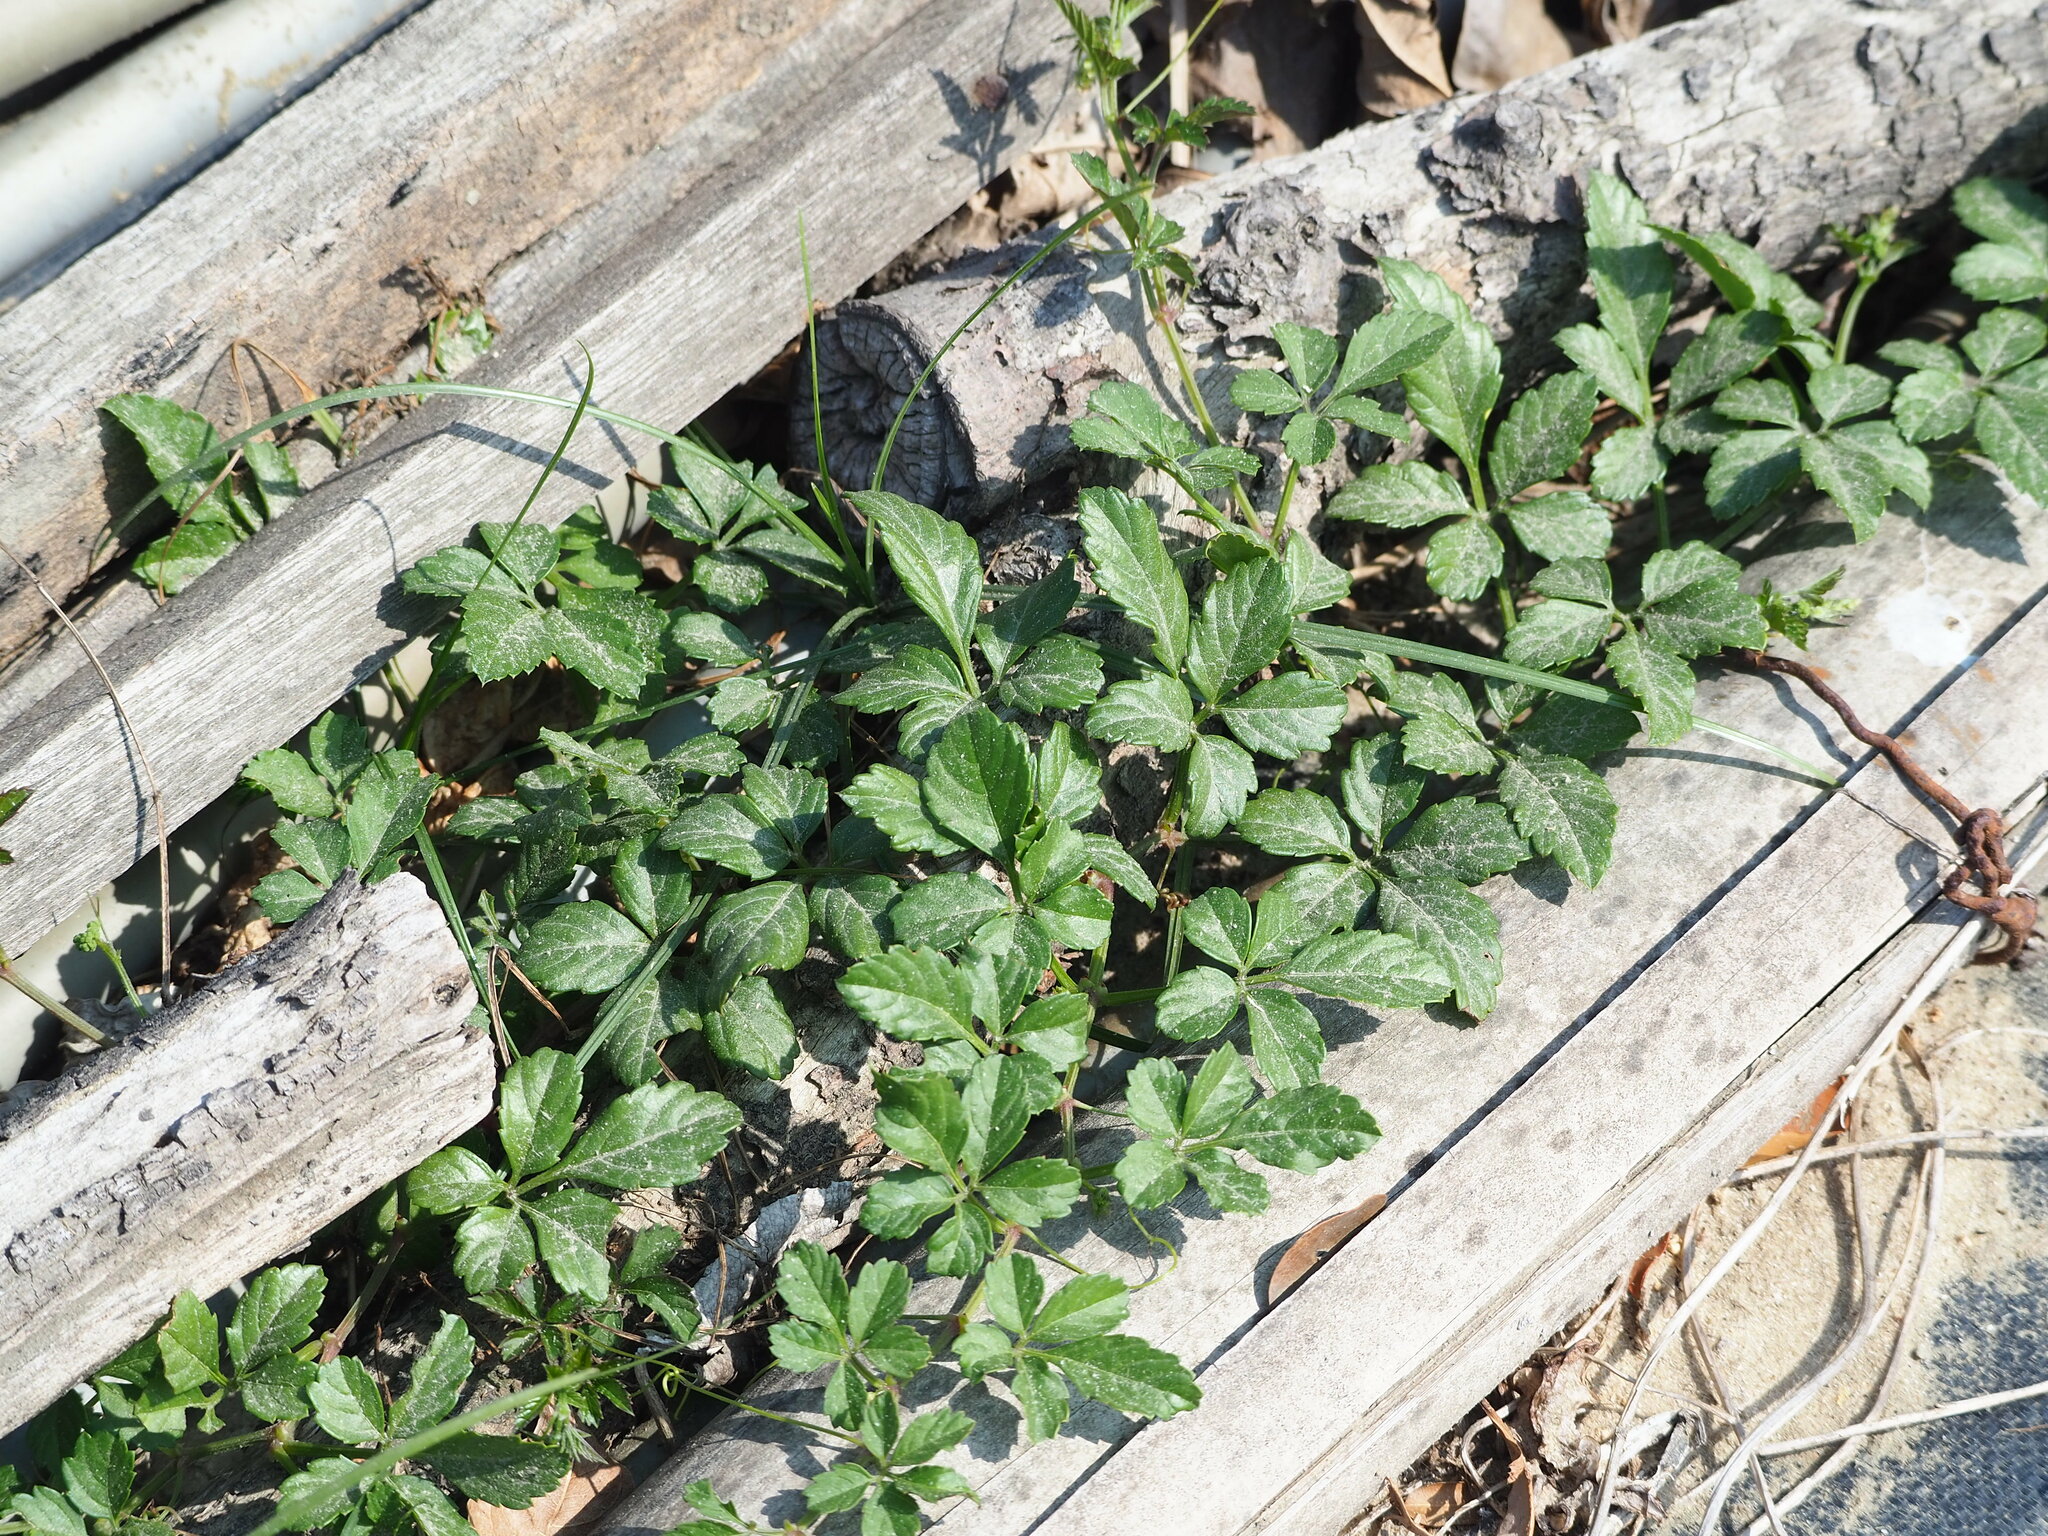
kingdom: Plantae
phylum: Tracheophyta
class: Magnoliopsida
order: Vitales
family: Vitaceae
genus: Causonis
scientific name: Causonis japonica
